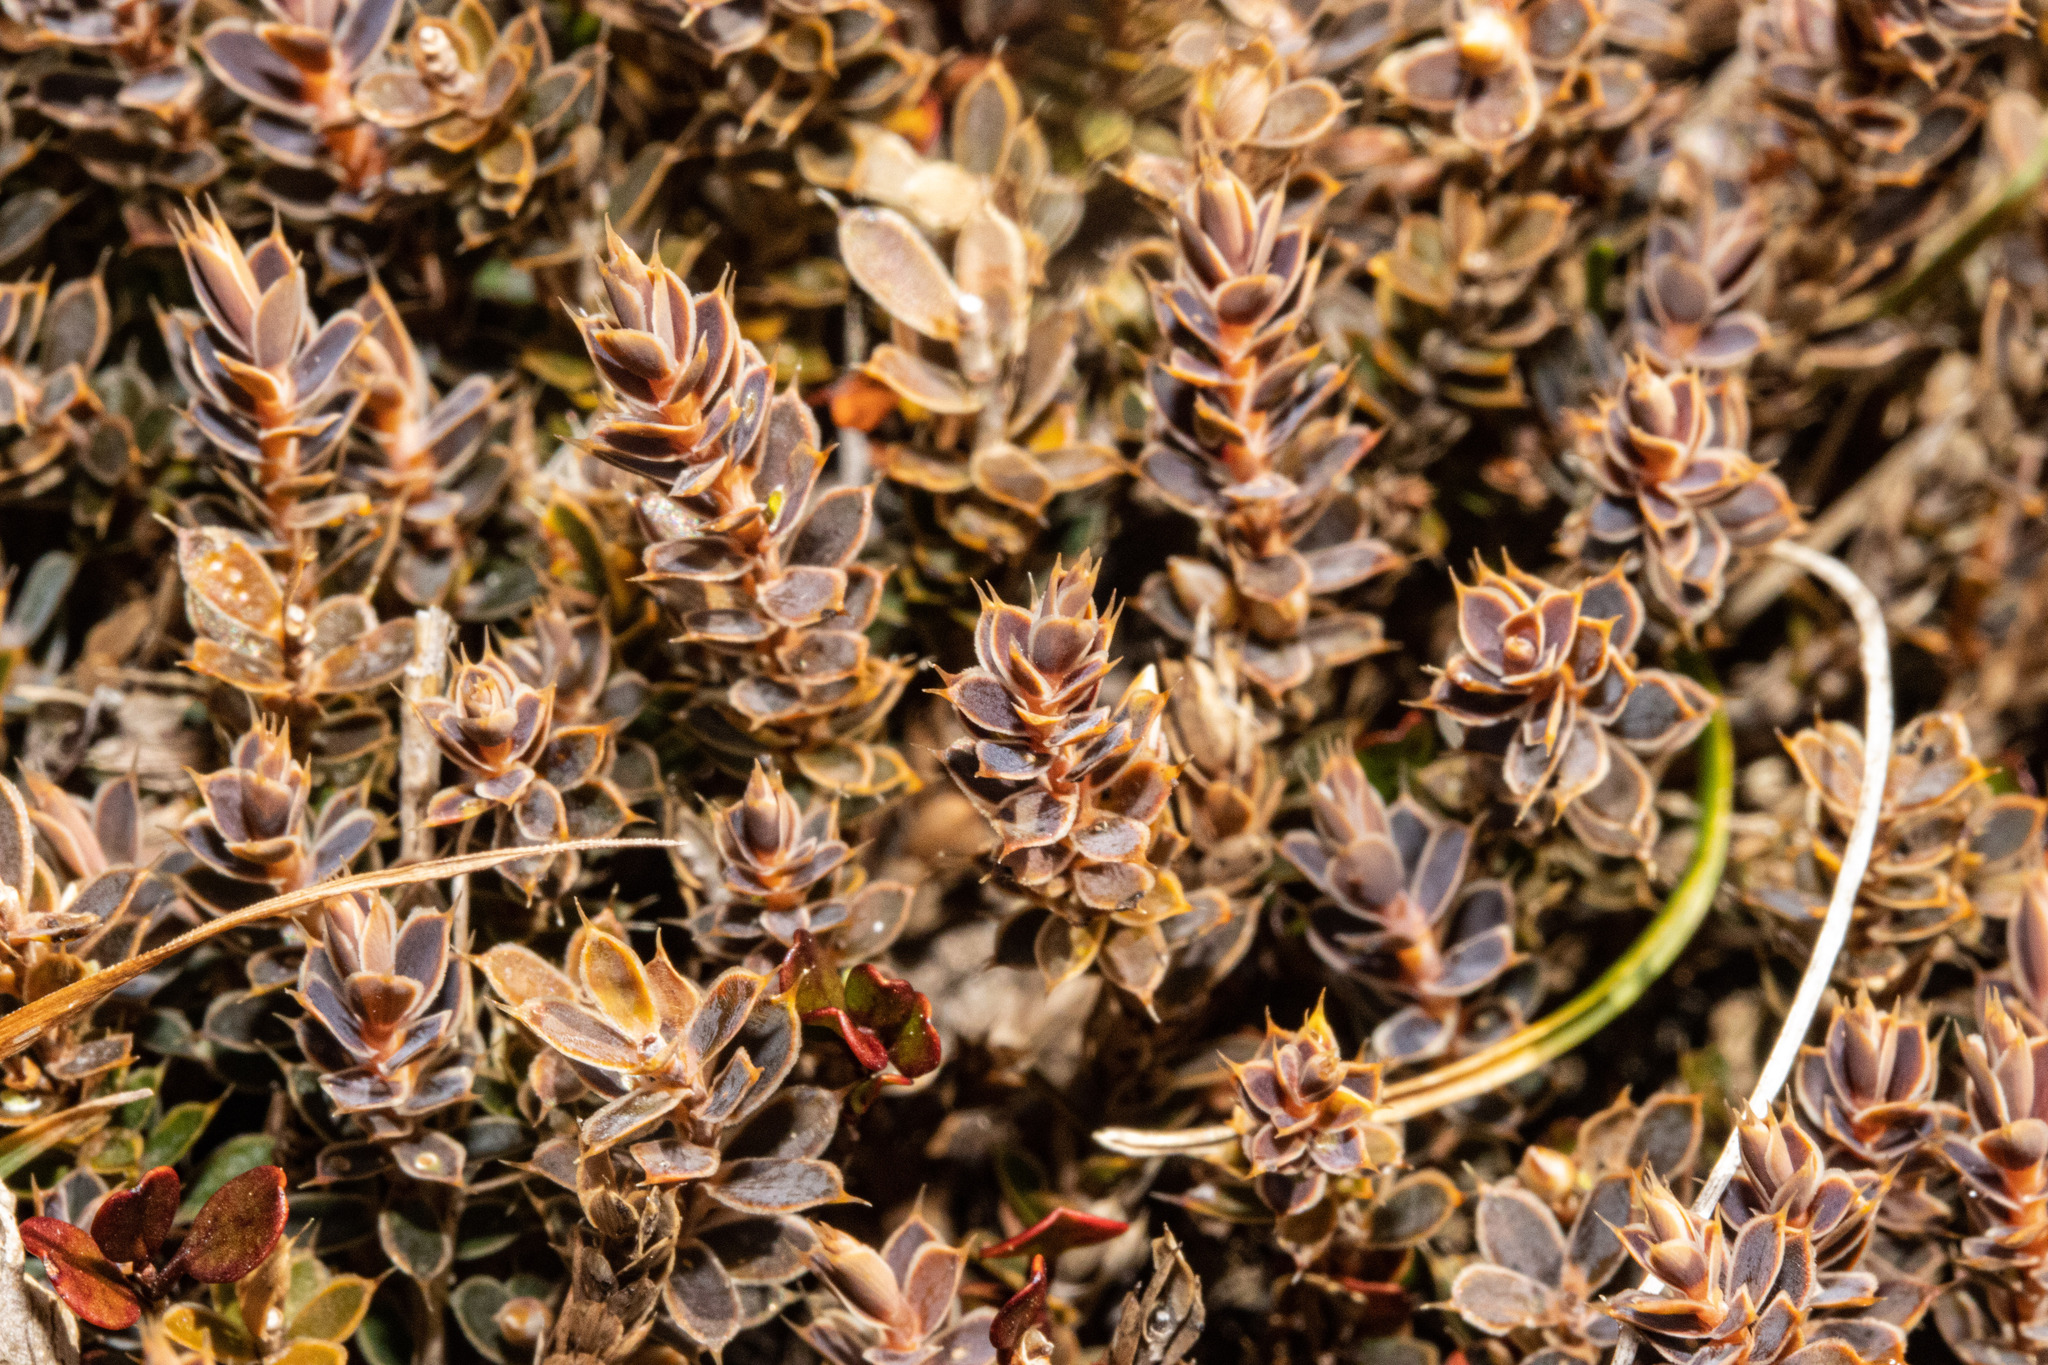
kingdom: Plantae
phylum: Tracheophyta
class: Magnoliopsida
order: Ericales
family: Ericaceae
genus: Styphelia
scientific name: Styphelia nesophila
